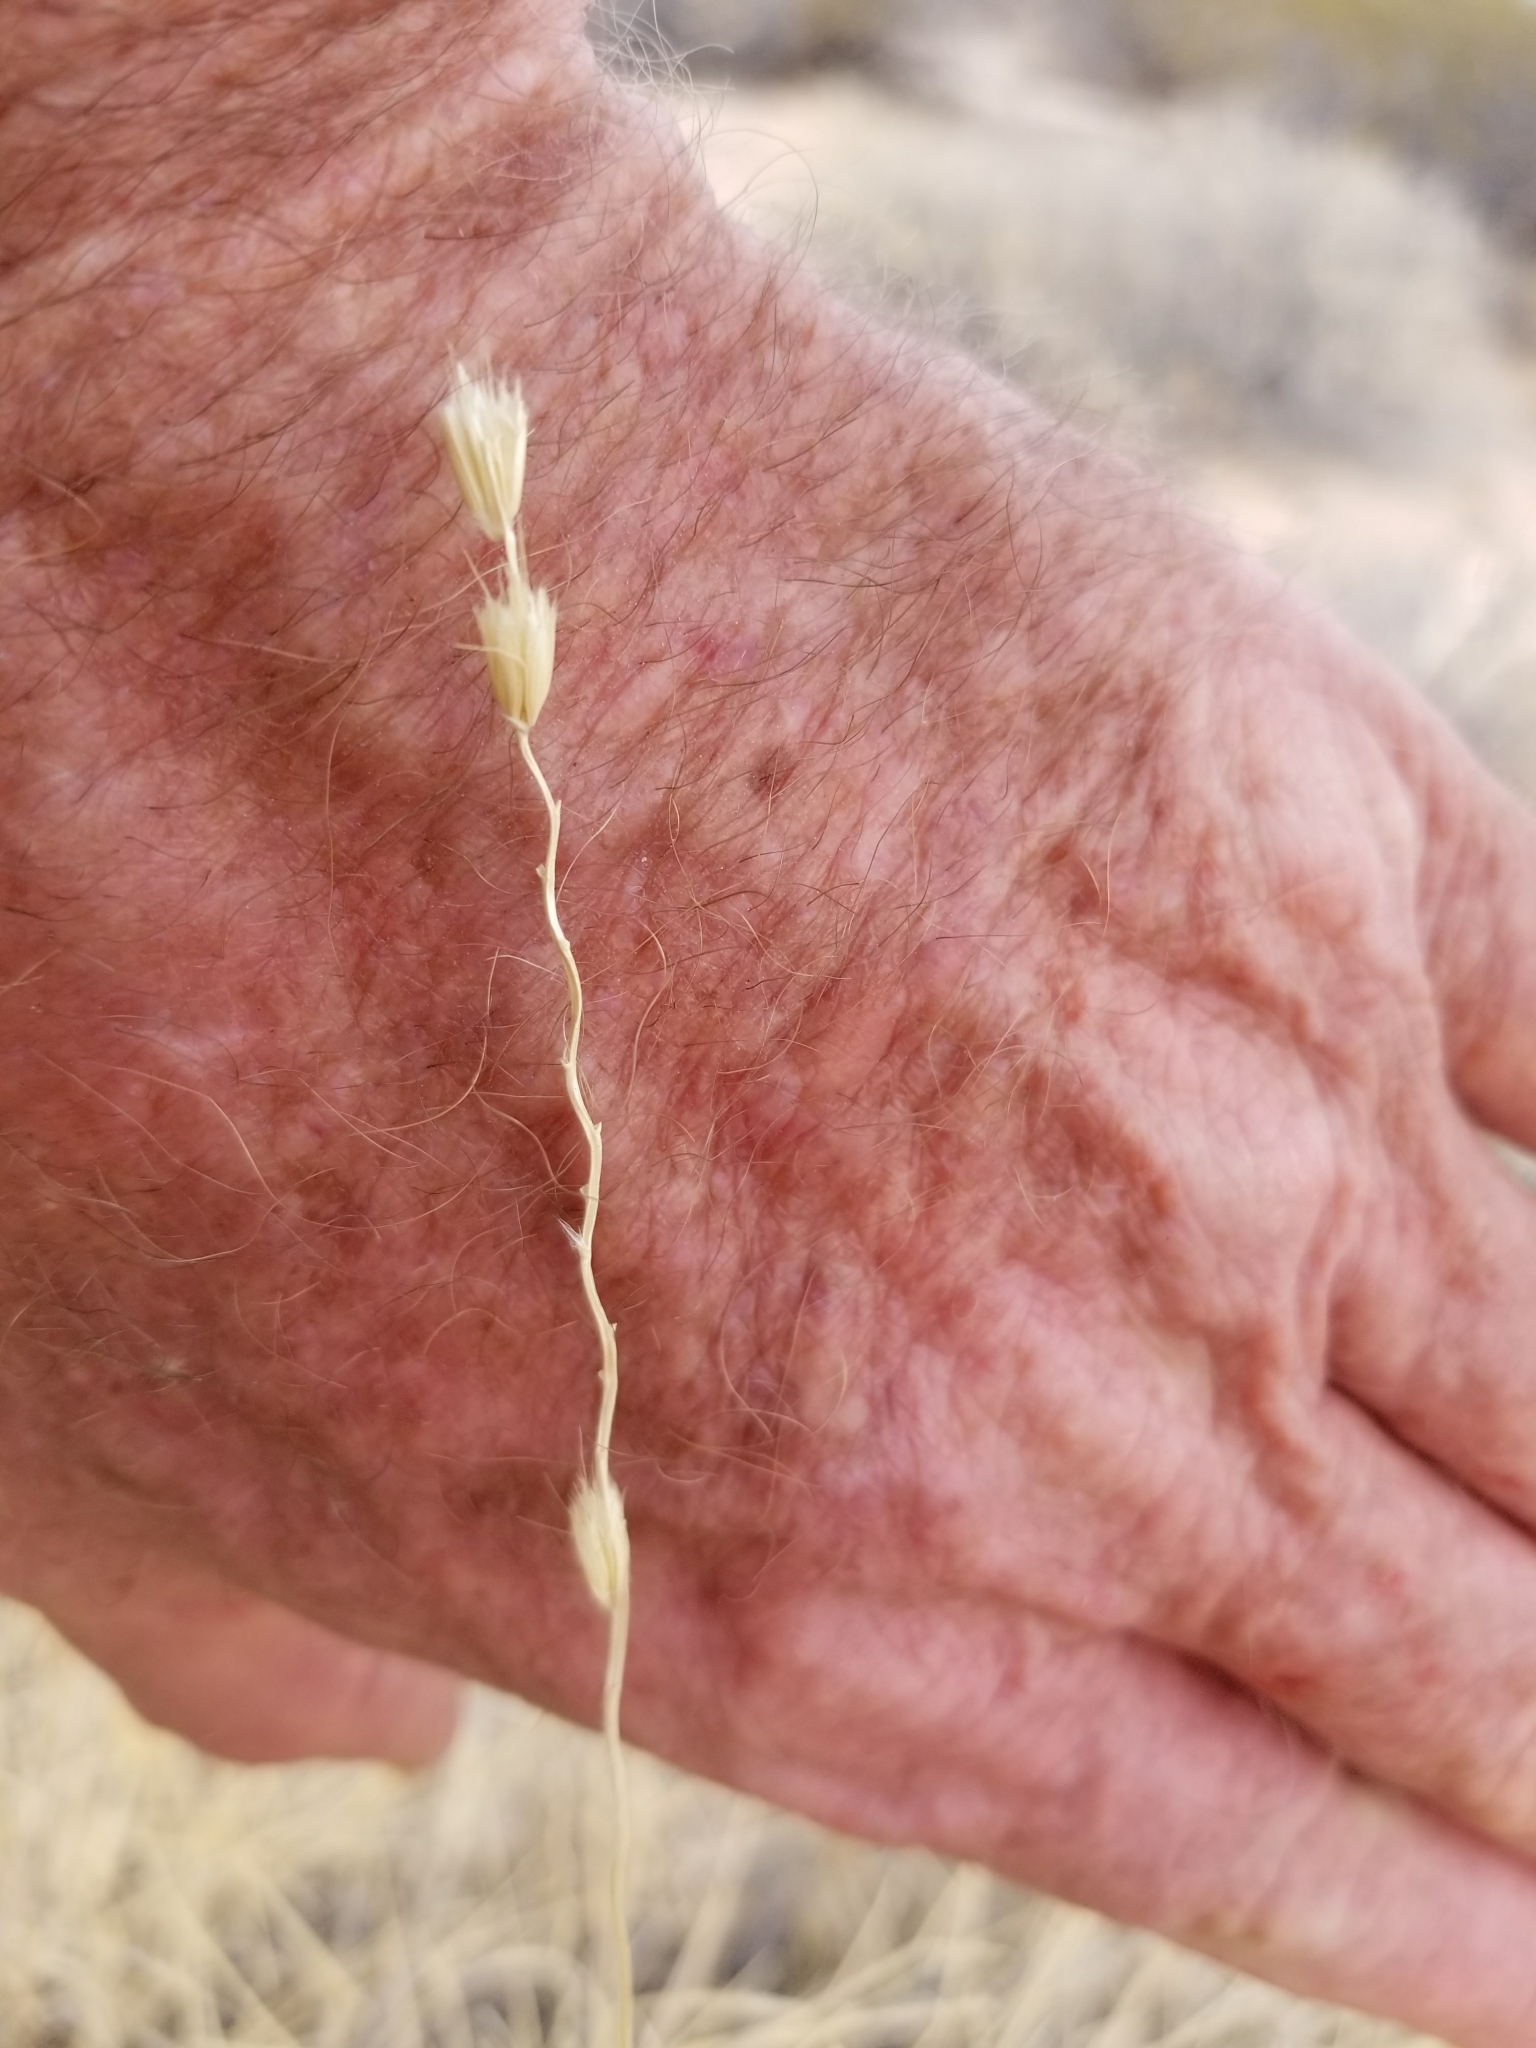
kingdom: Plantae
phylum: Tracheophyta
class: Liliopsida
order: Poales
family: Poaceae
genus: Hilaria
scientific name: Hilaria rigida
